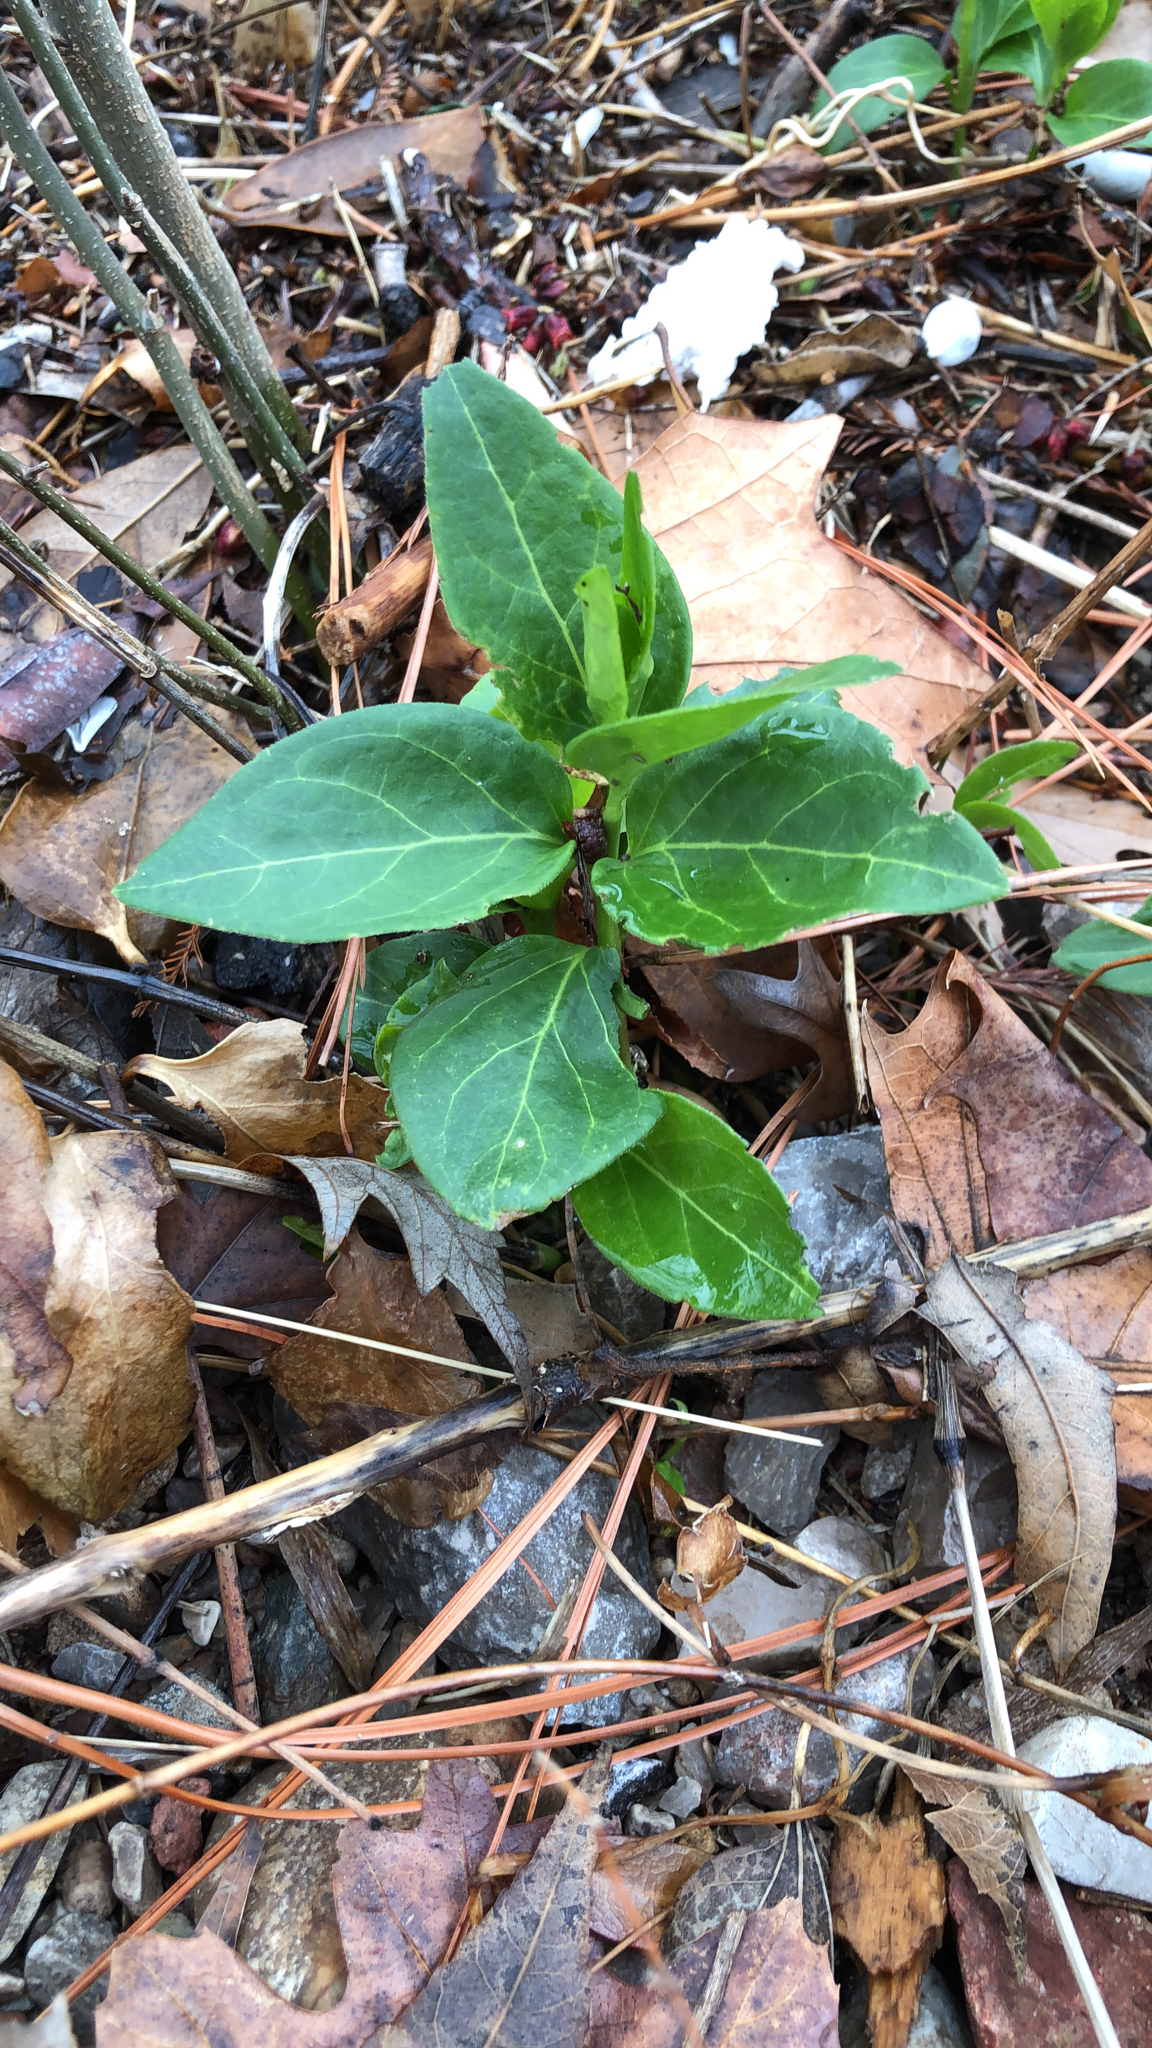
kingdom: Plantae
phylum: Tracheophyta
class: Magnoliopsida
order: Gentianales
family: Apocynaceae
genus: Vinca
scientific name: Vinca major
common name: Greater periwinkle
